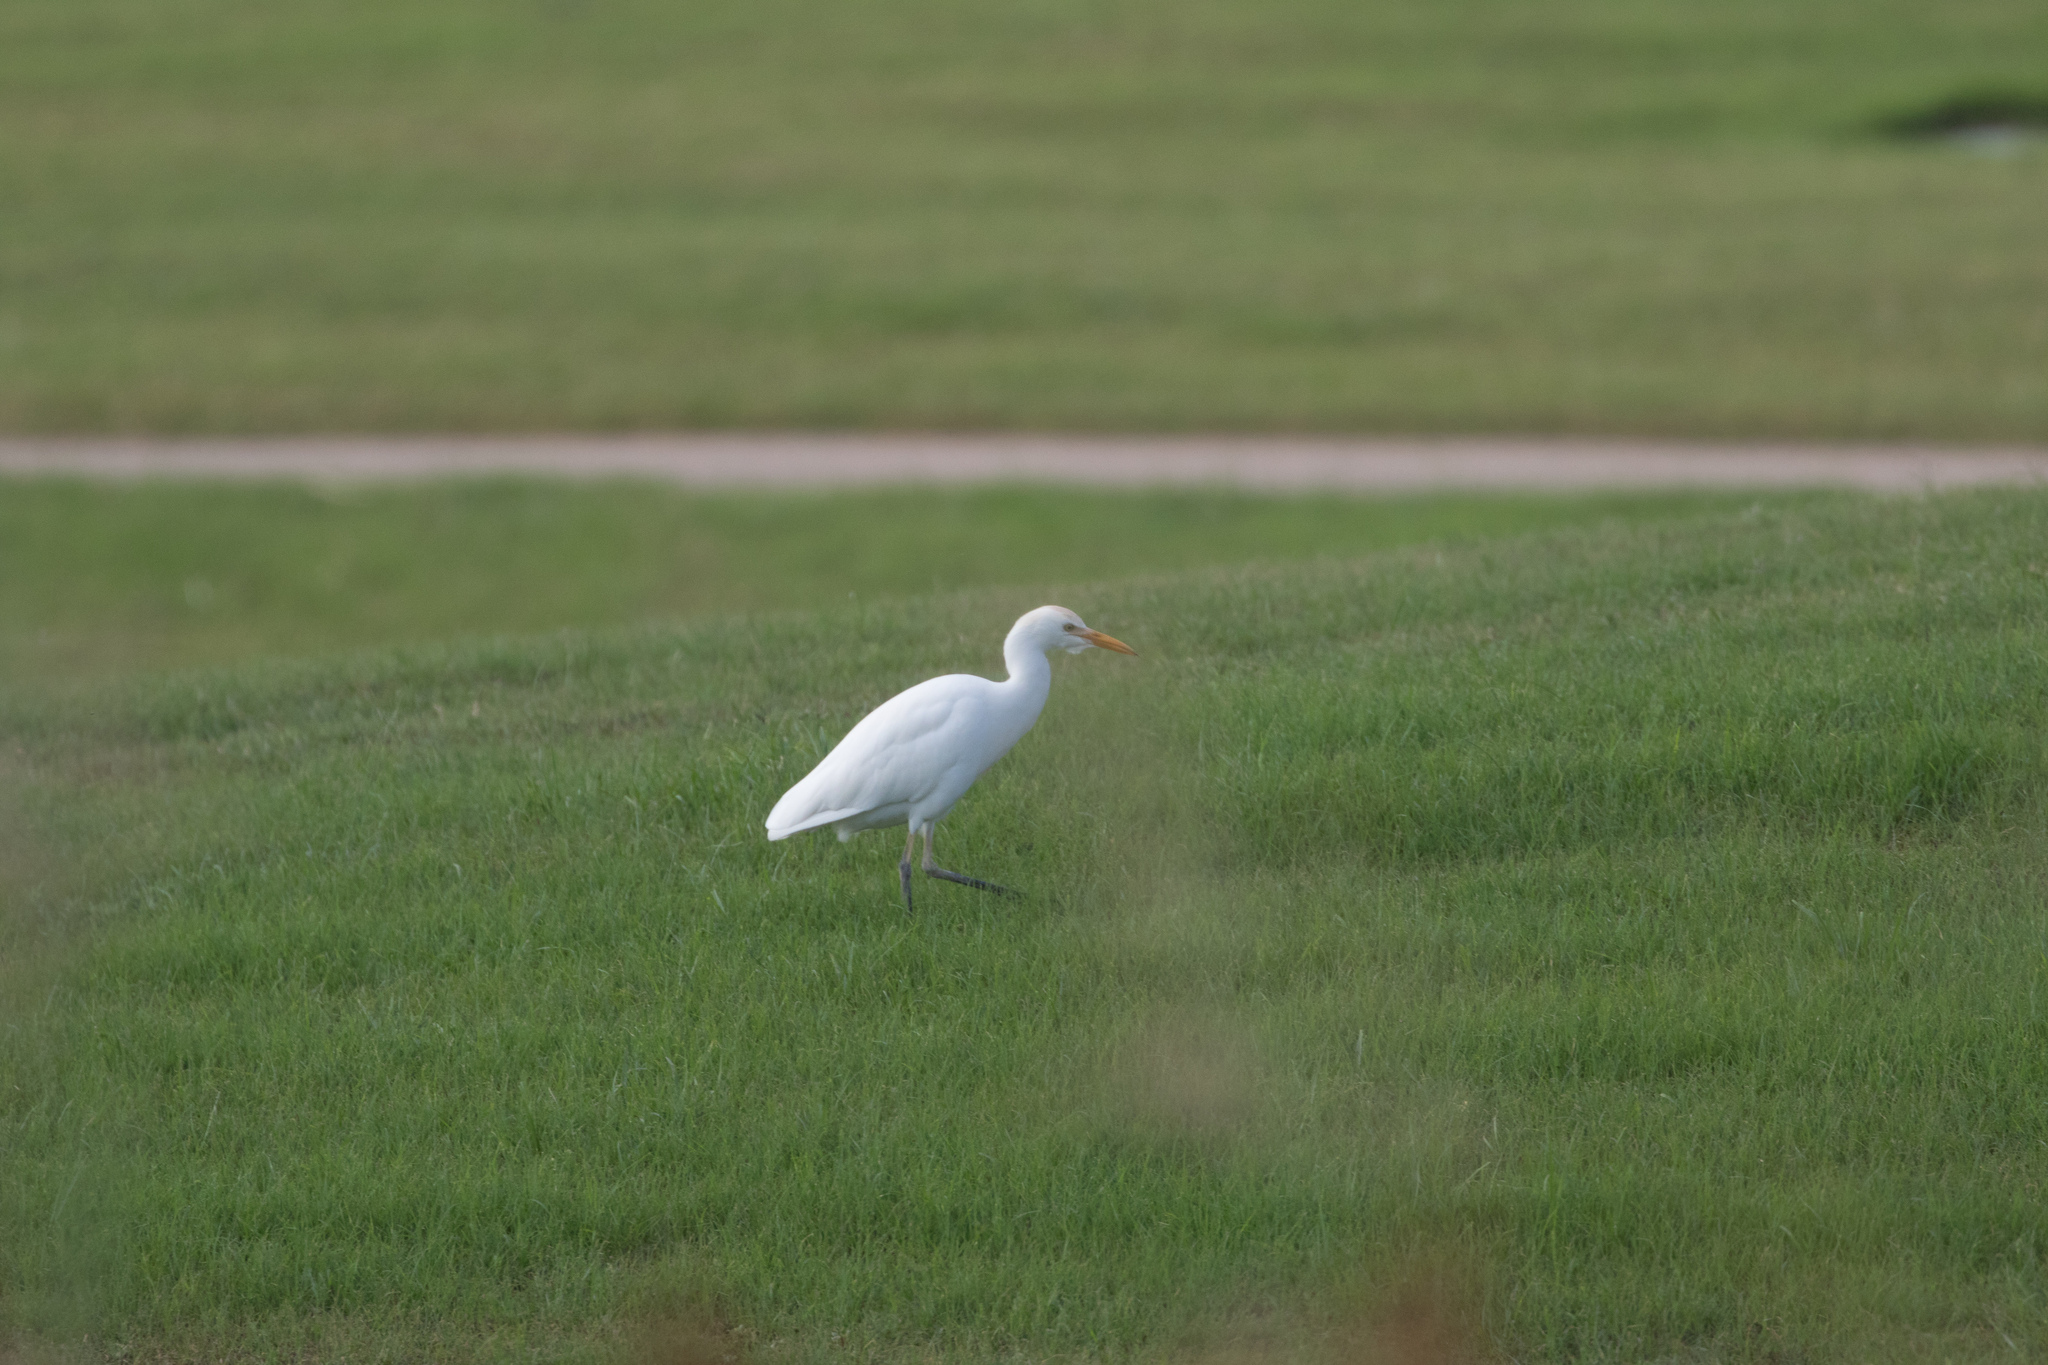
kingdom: Animalia
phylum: Chordata
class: Aves
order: Pelecaniformes
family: Ardeidae
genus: Bubulcus
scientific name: Bubulcus ibis
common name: Cattle egret
